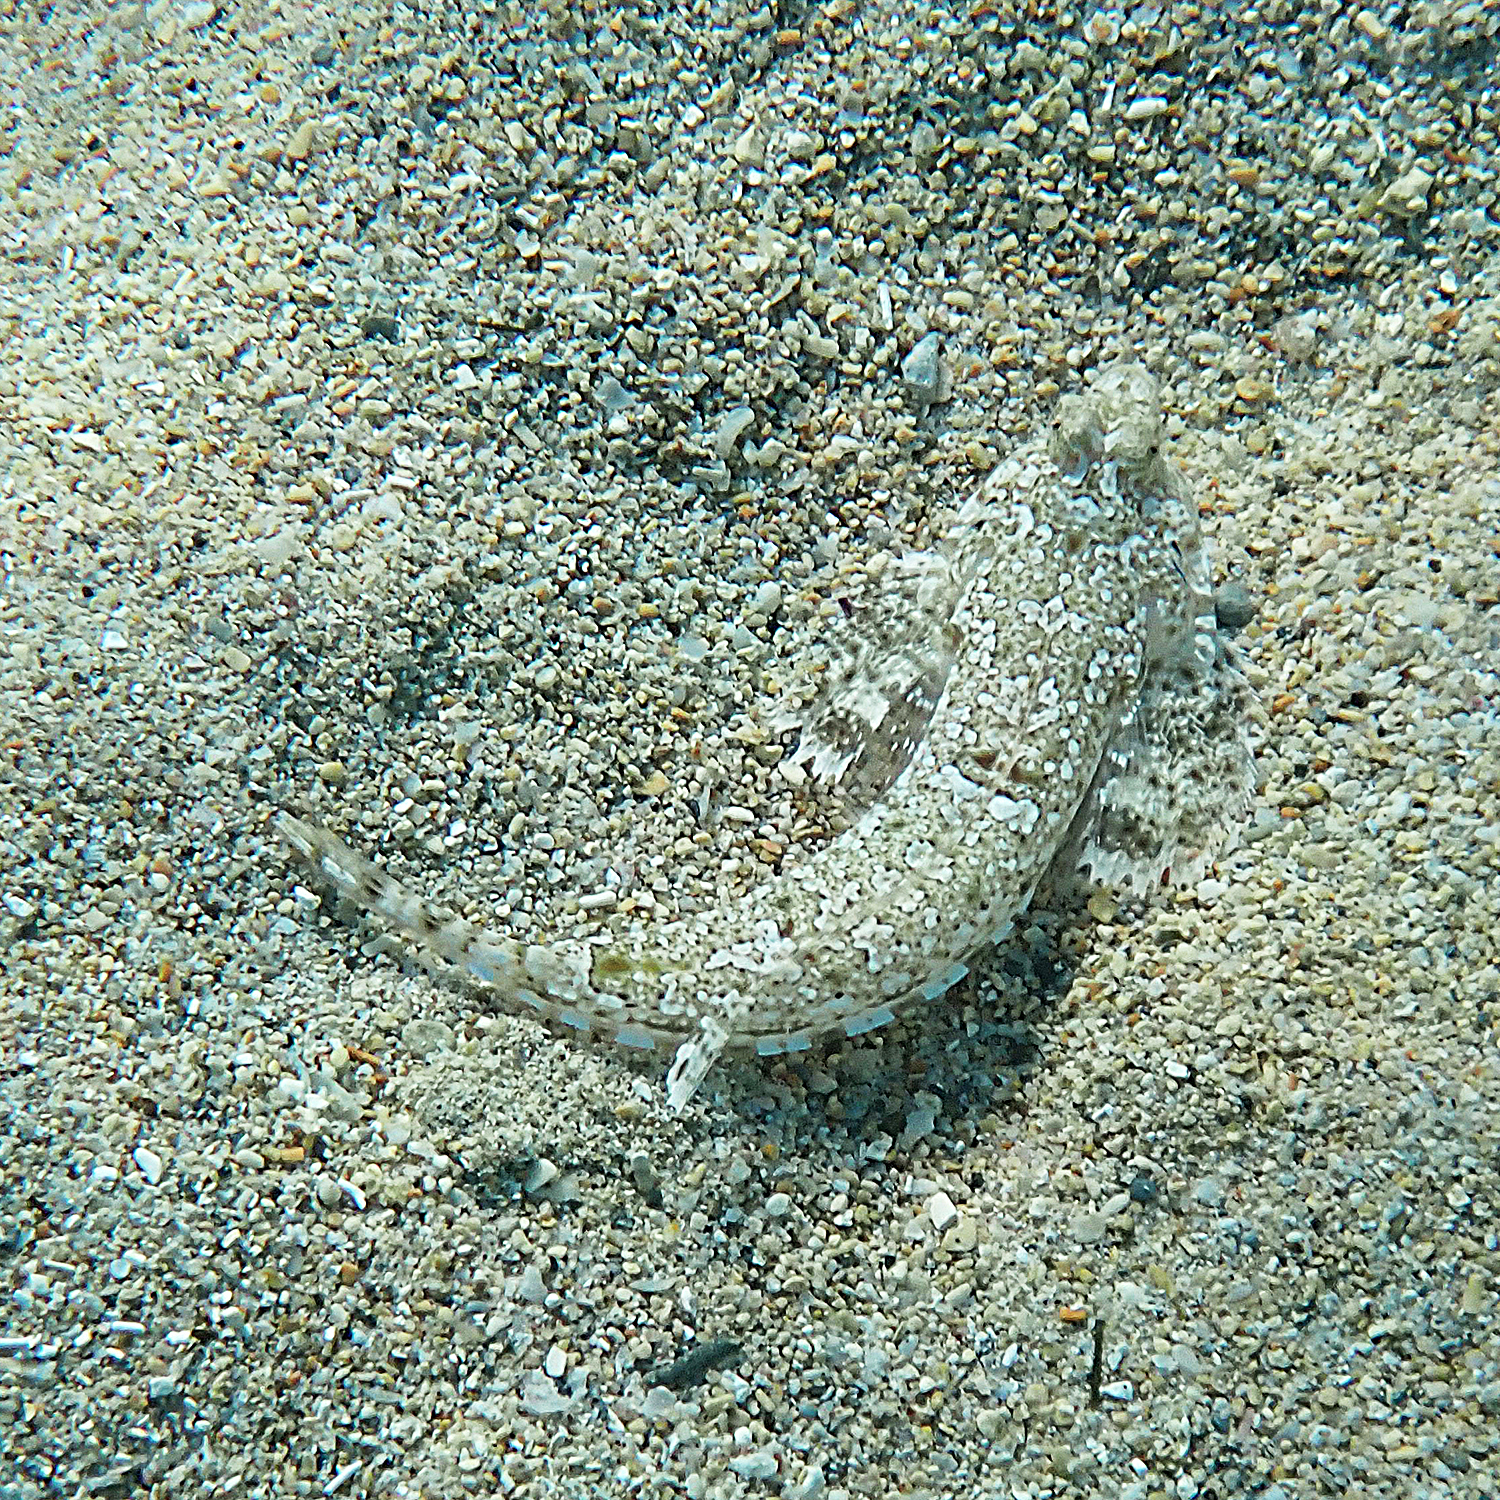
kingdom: Animalia
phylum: Chordata
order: Perciformes
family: Callionymidae
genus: Diplogrammus
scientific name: Diplogrammus goramensis
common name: Goram dragonet
